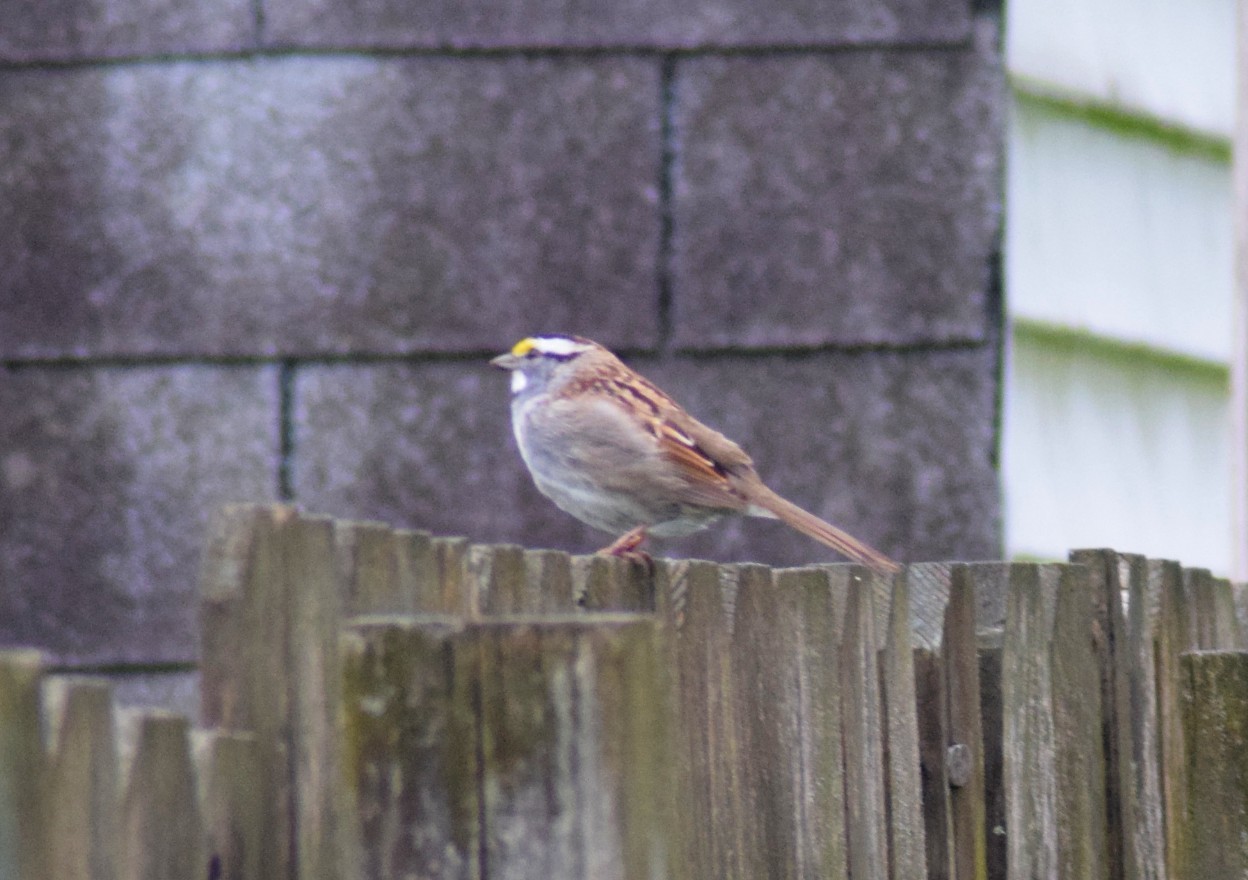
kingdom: Animalia
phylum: Chordata
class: Aves
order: Passeriformes
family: Passerellidae
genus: Zonotrichia
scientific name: Zonotrichia albicollis
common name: White-throated sparrow
